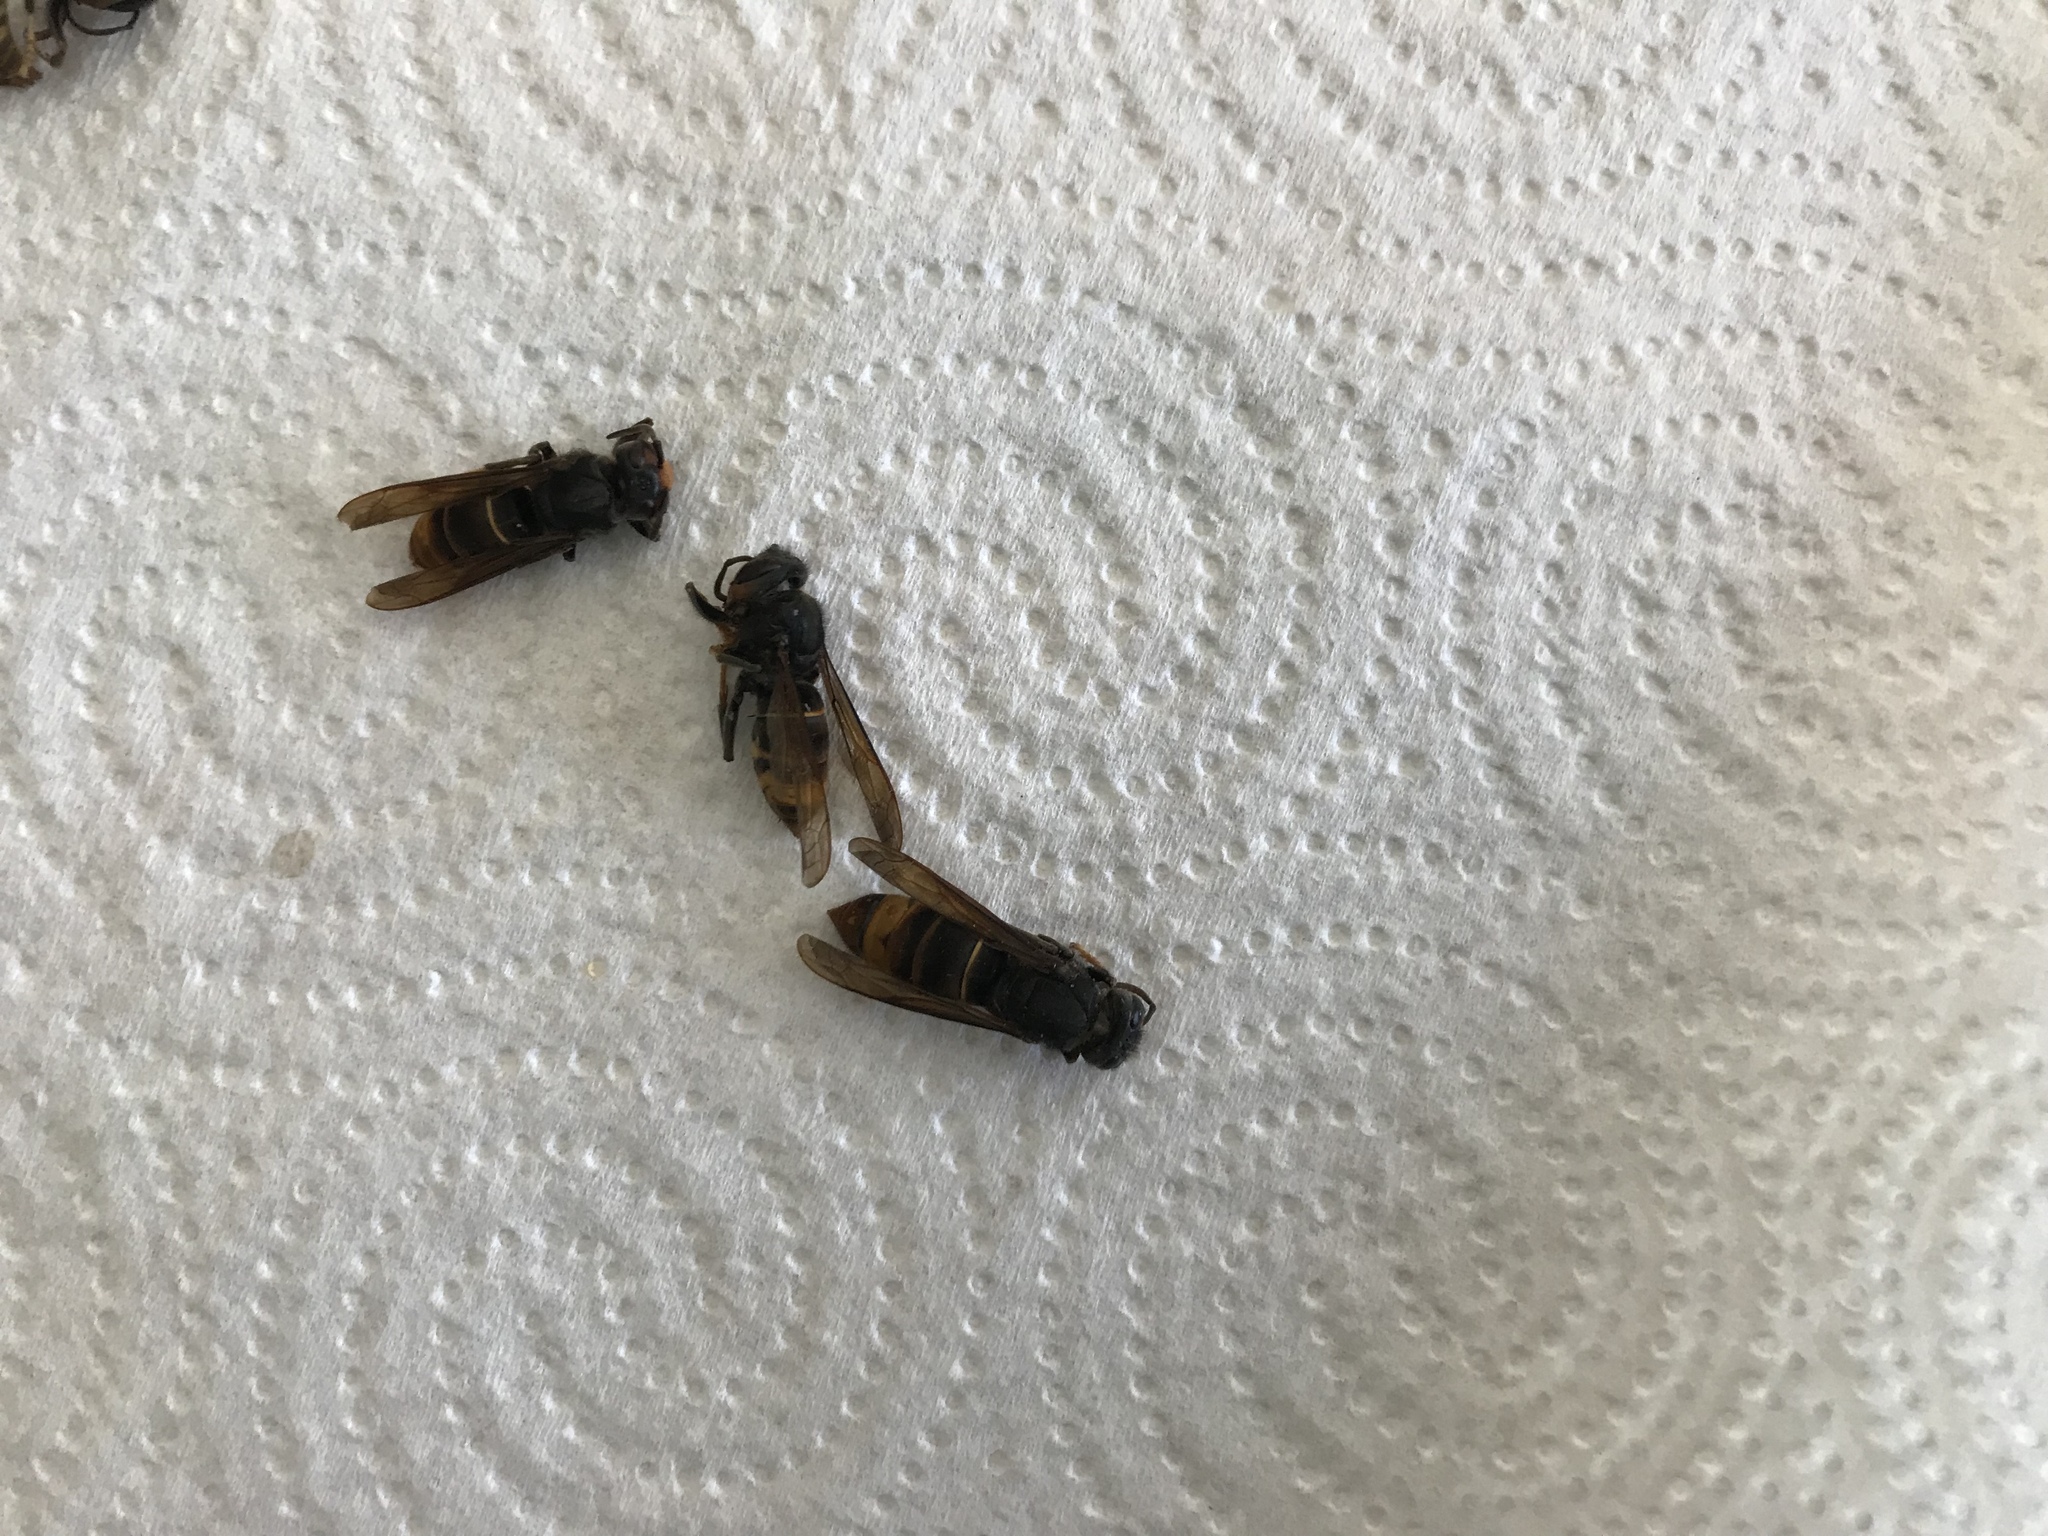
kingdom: Animalia
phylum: Arthropoda
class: Insecta
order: Hymenoptera
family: Vespidae
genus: Vespa
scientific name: Vespa velutina
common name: Asian hornet
